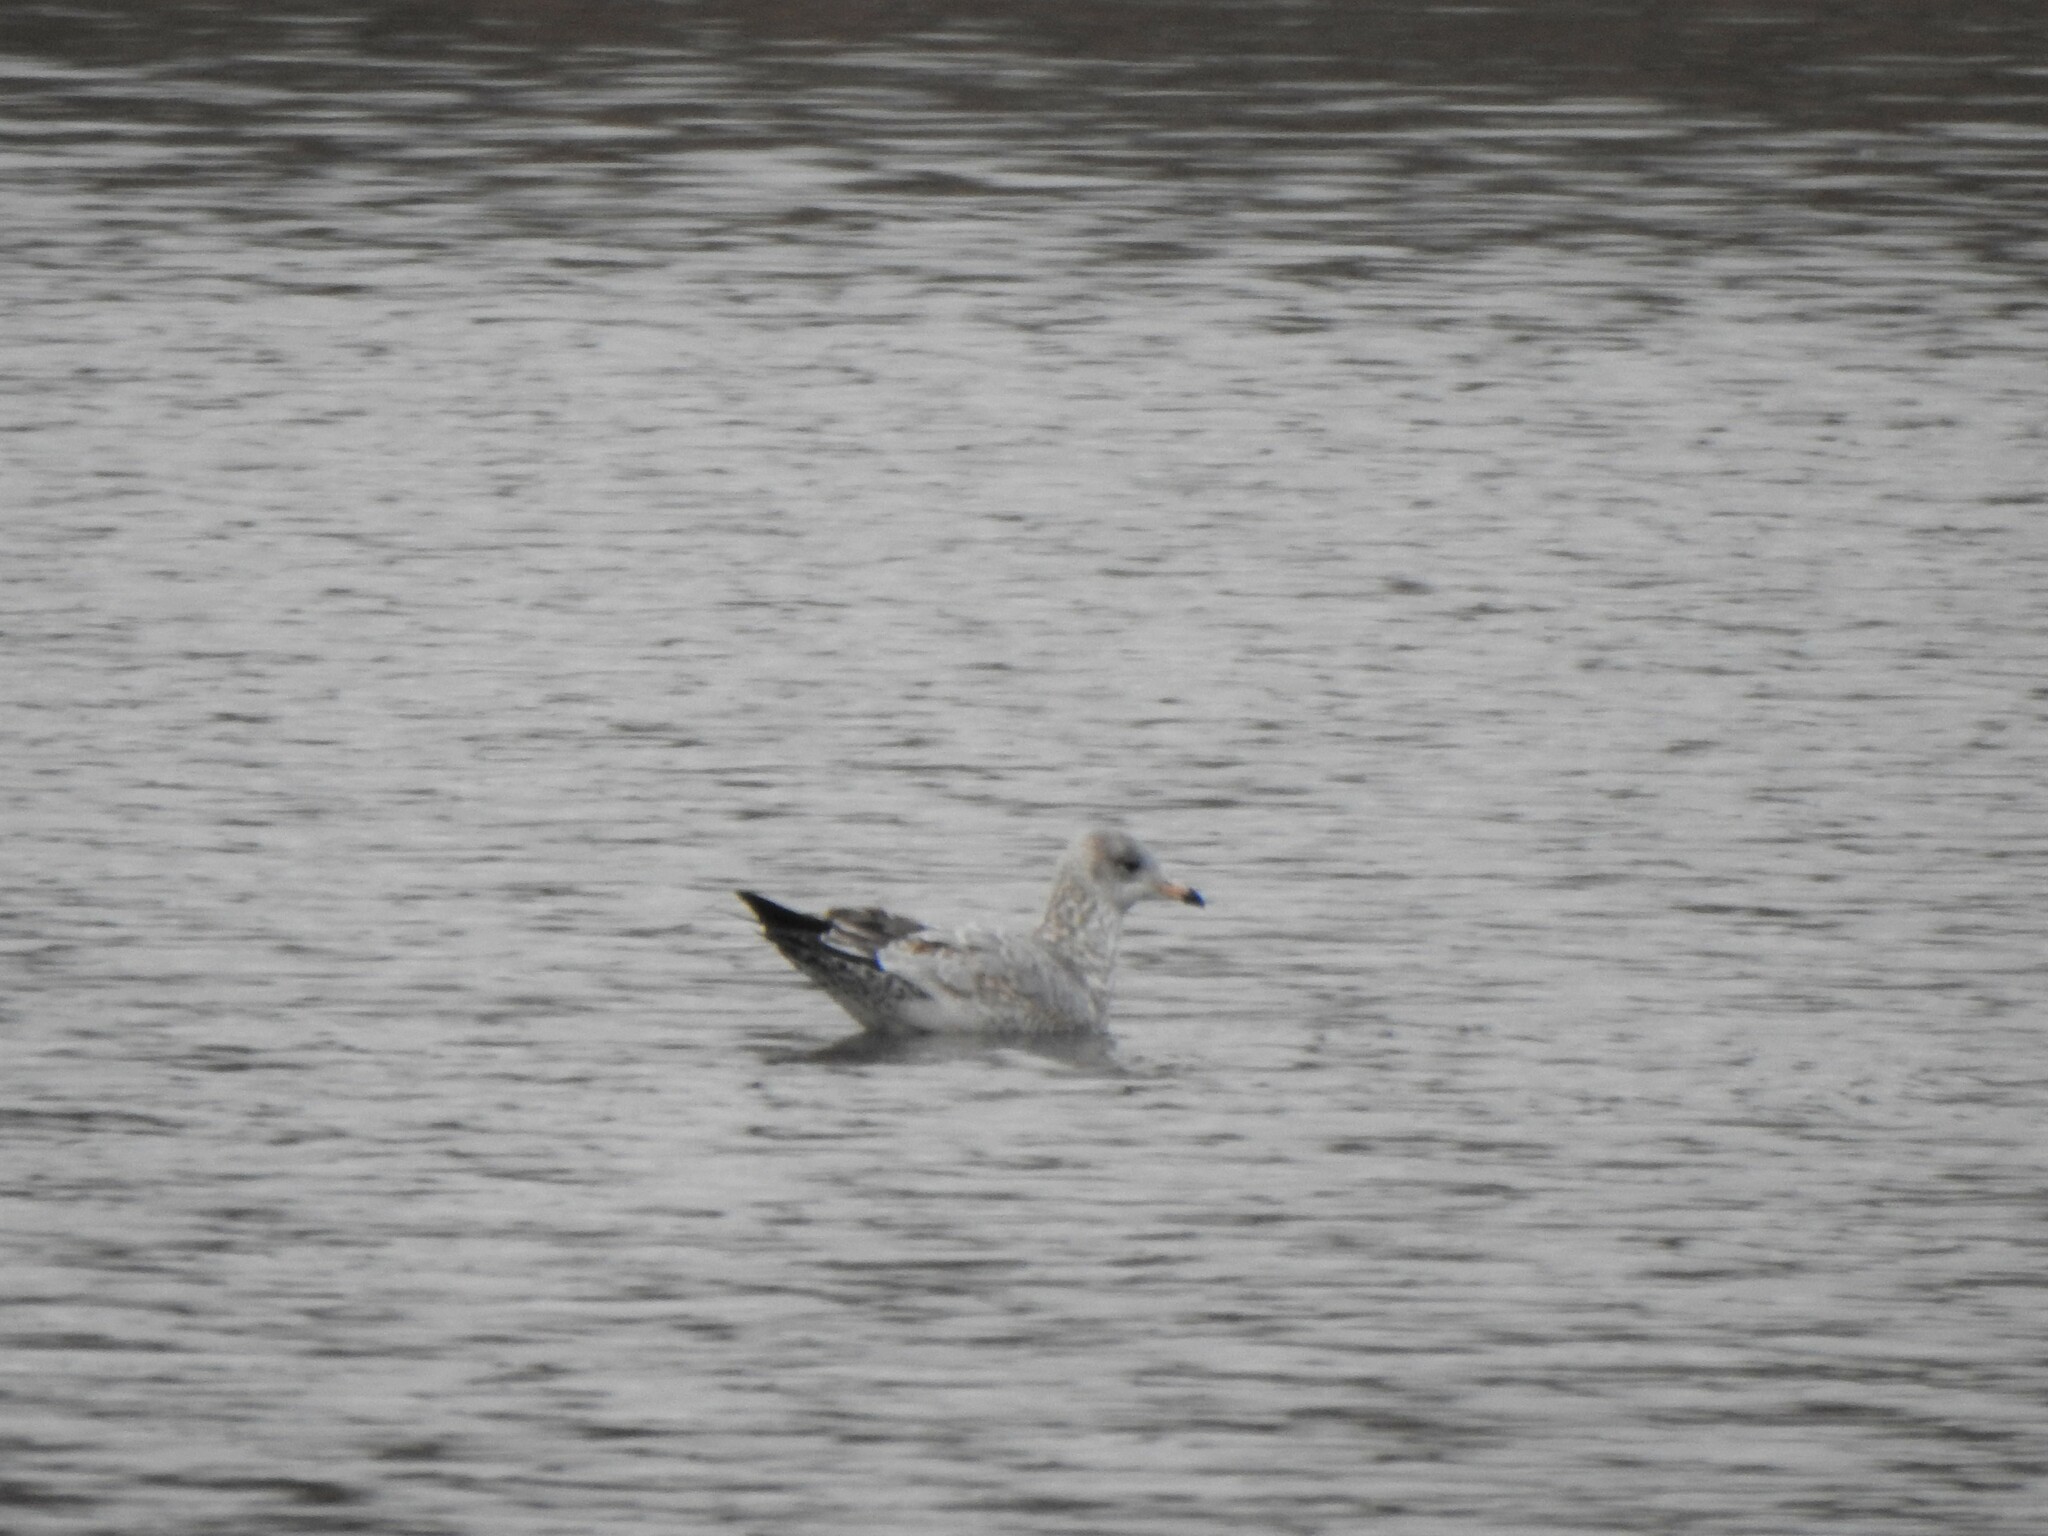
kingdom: Animalia
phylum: Chordata
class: Aves
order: Charadriiformes
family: Laridae
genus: Larus
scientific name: Larus delawarensis
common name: Ring-billed gull
